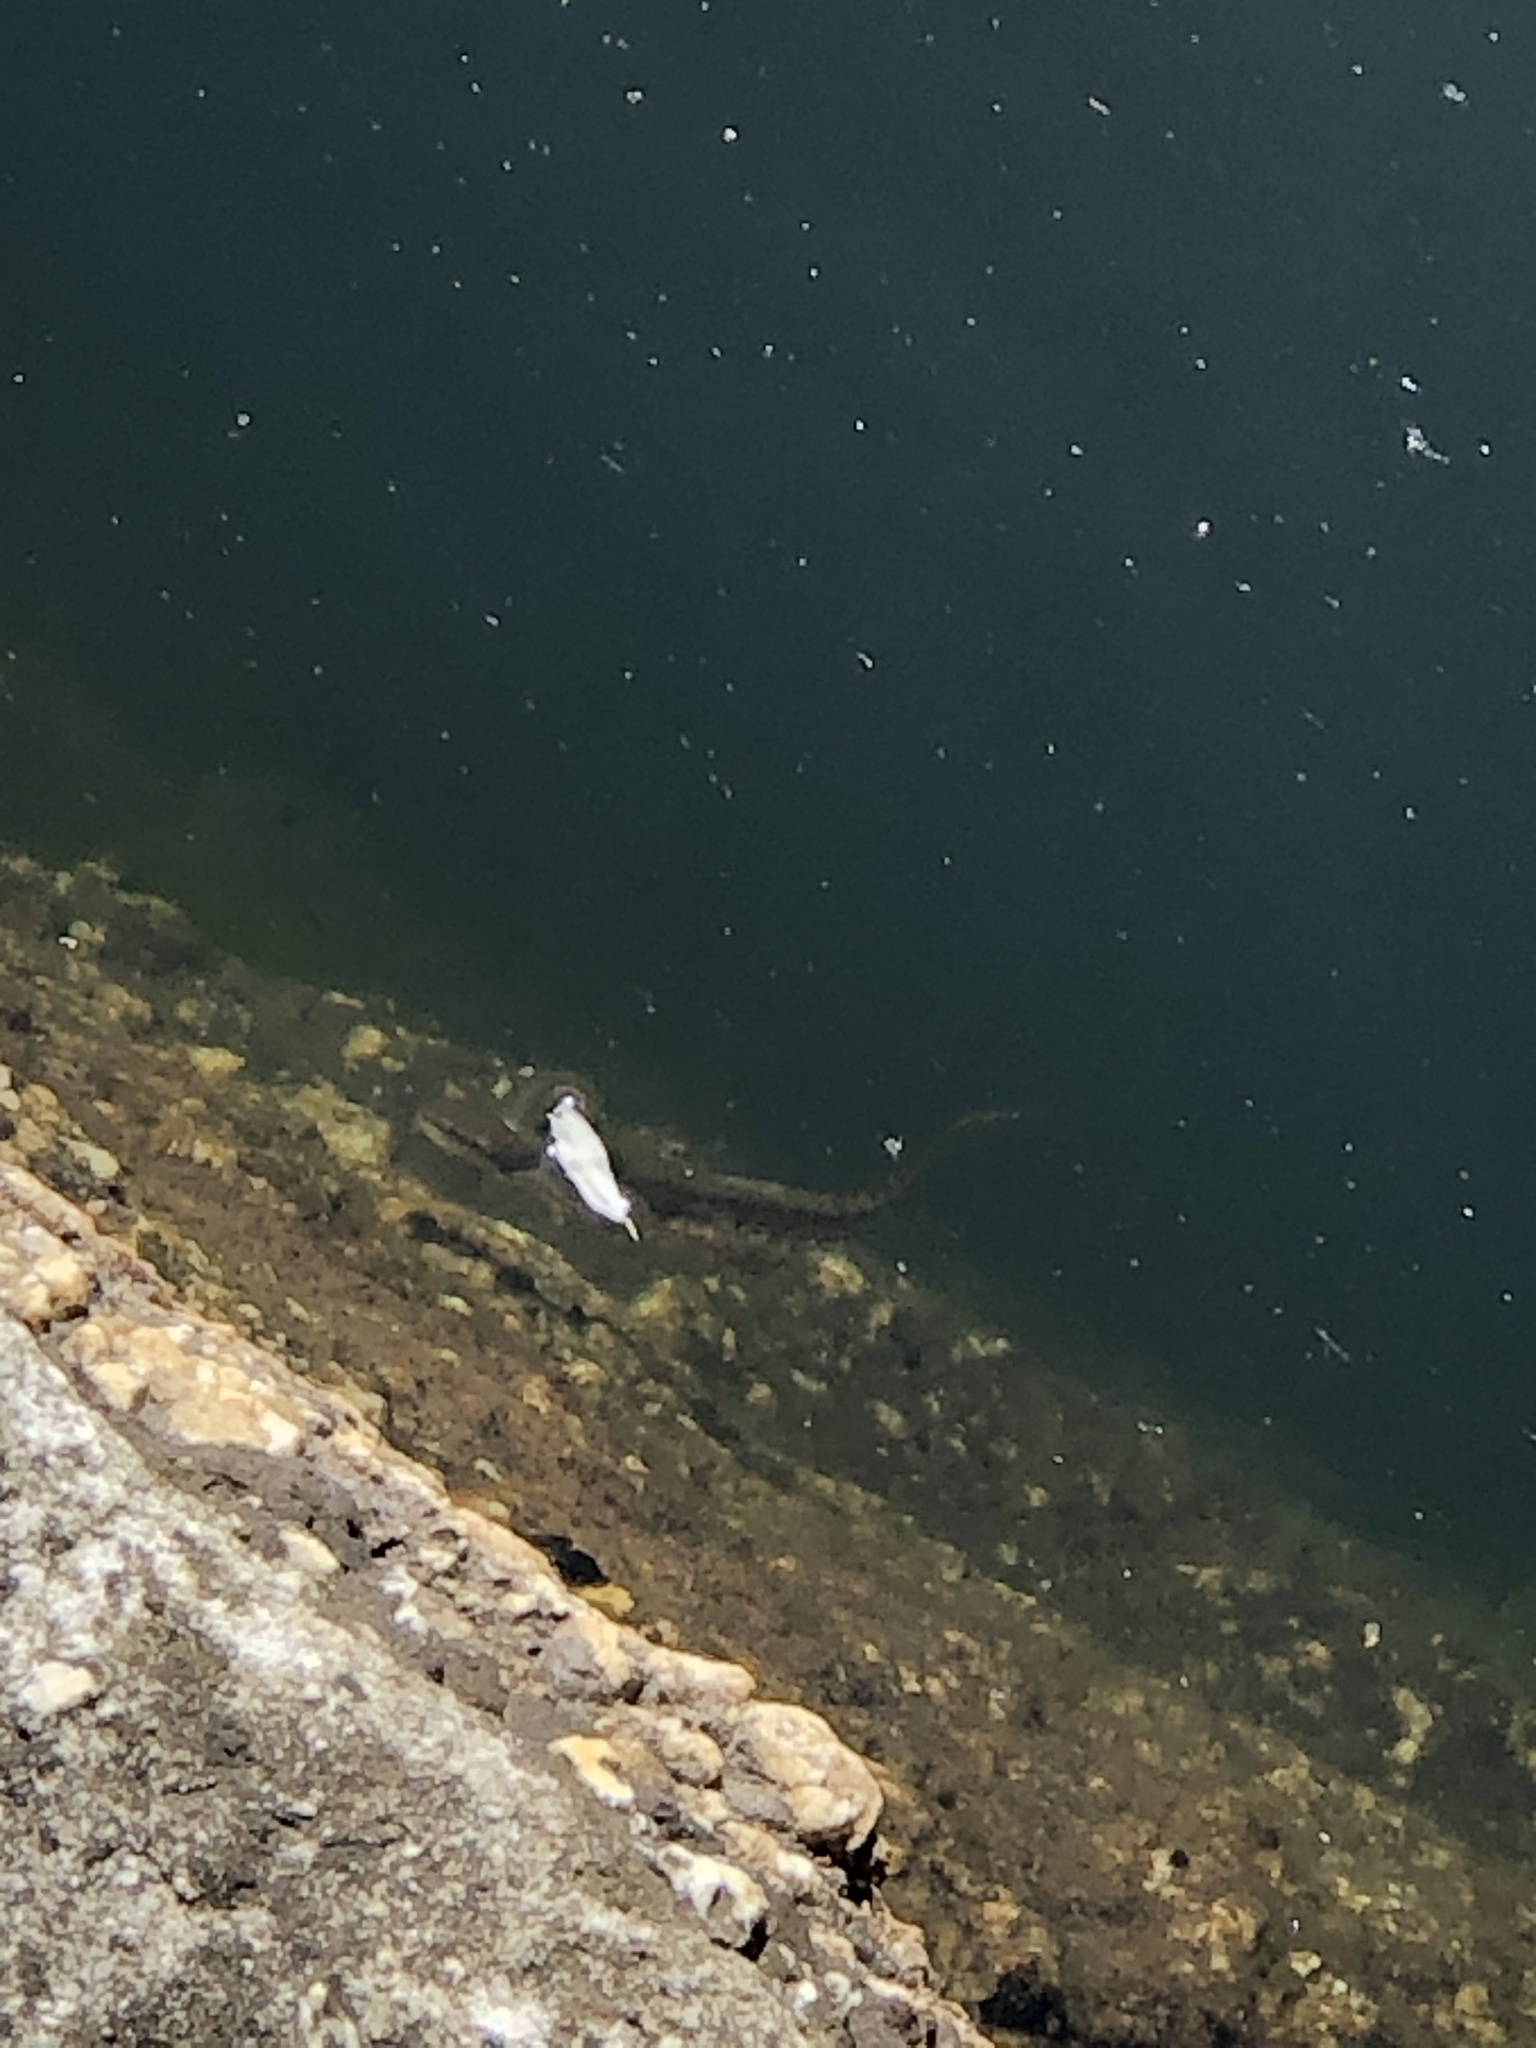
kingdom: Animalia
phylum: Chordata
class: Amphibia
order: Caudata
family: Salamandridae
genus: Notophthalmus
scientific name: Notophthalmus viridescens
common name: Eastern newt
